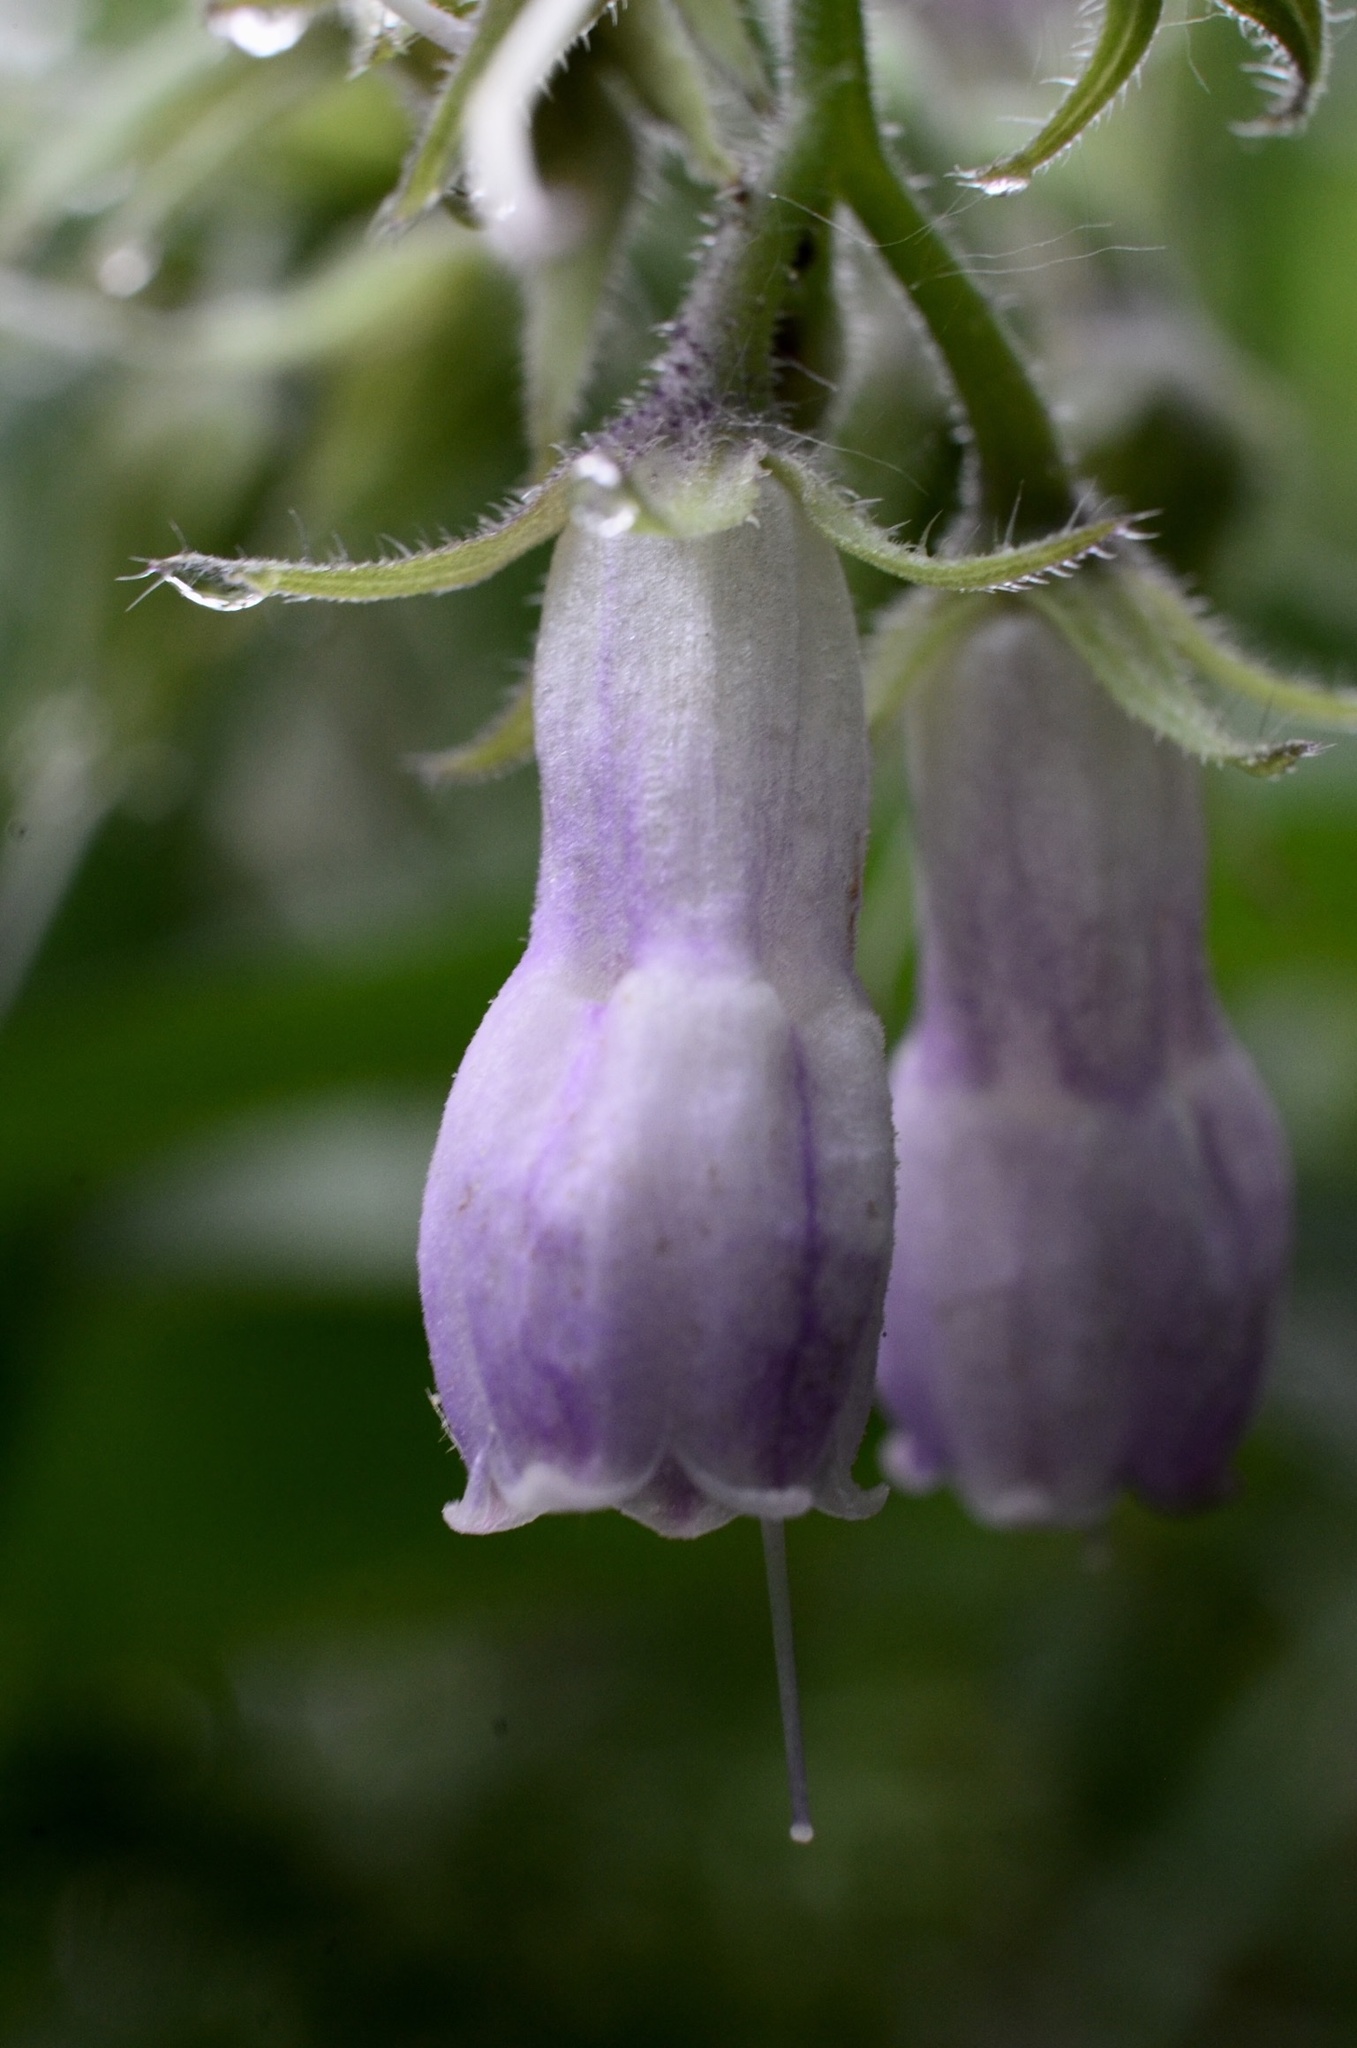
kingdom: Plantae
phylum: Tracheophyta
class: Magnoliopsida
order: Boraginales
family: Boraginaceae
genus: Symphytum
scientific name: Symphytum officinale
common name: Common comfrey
